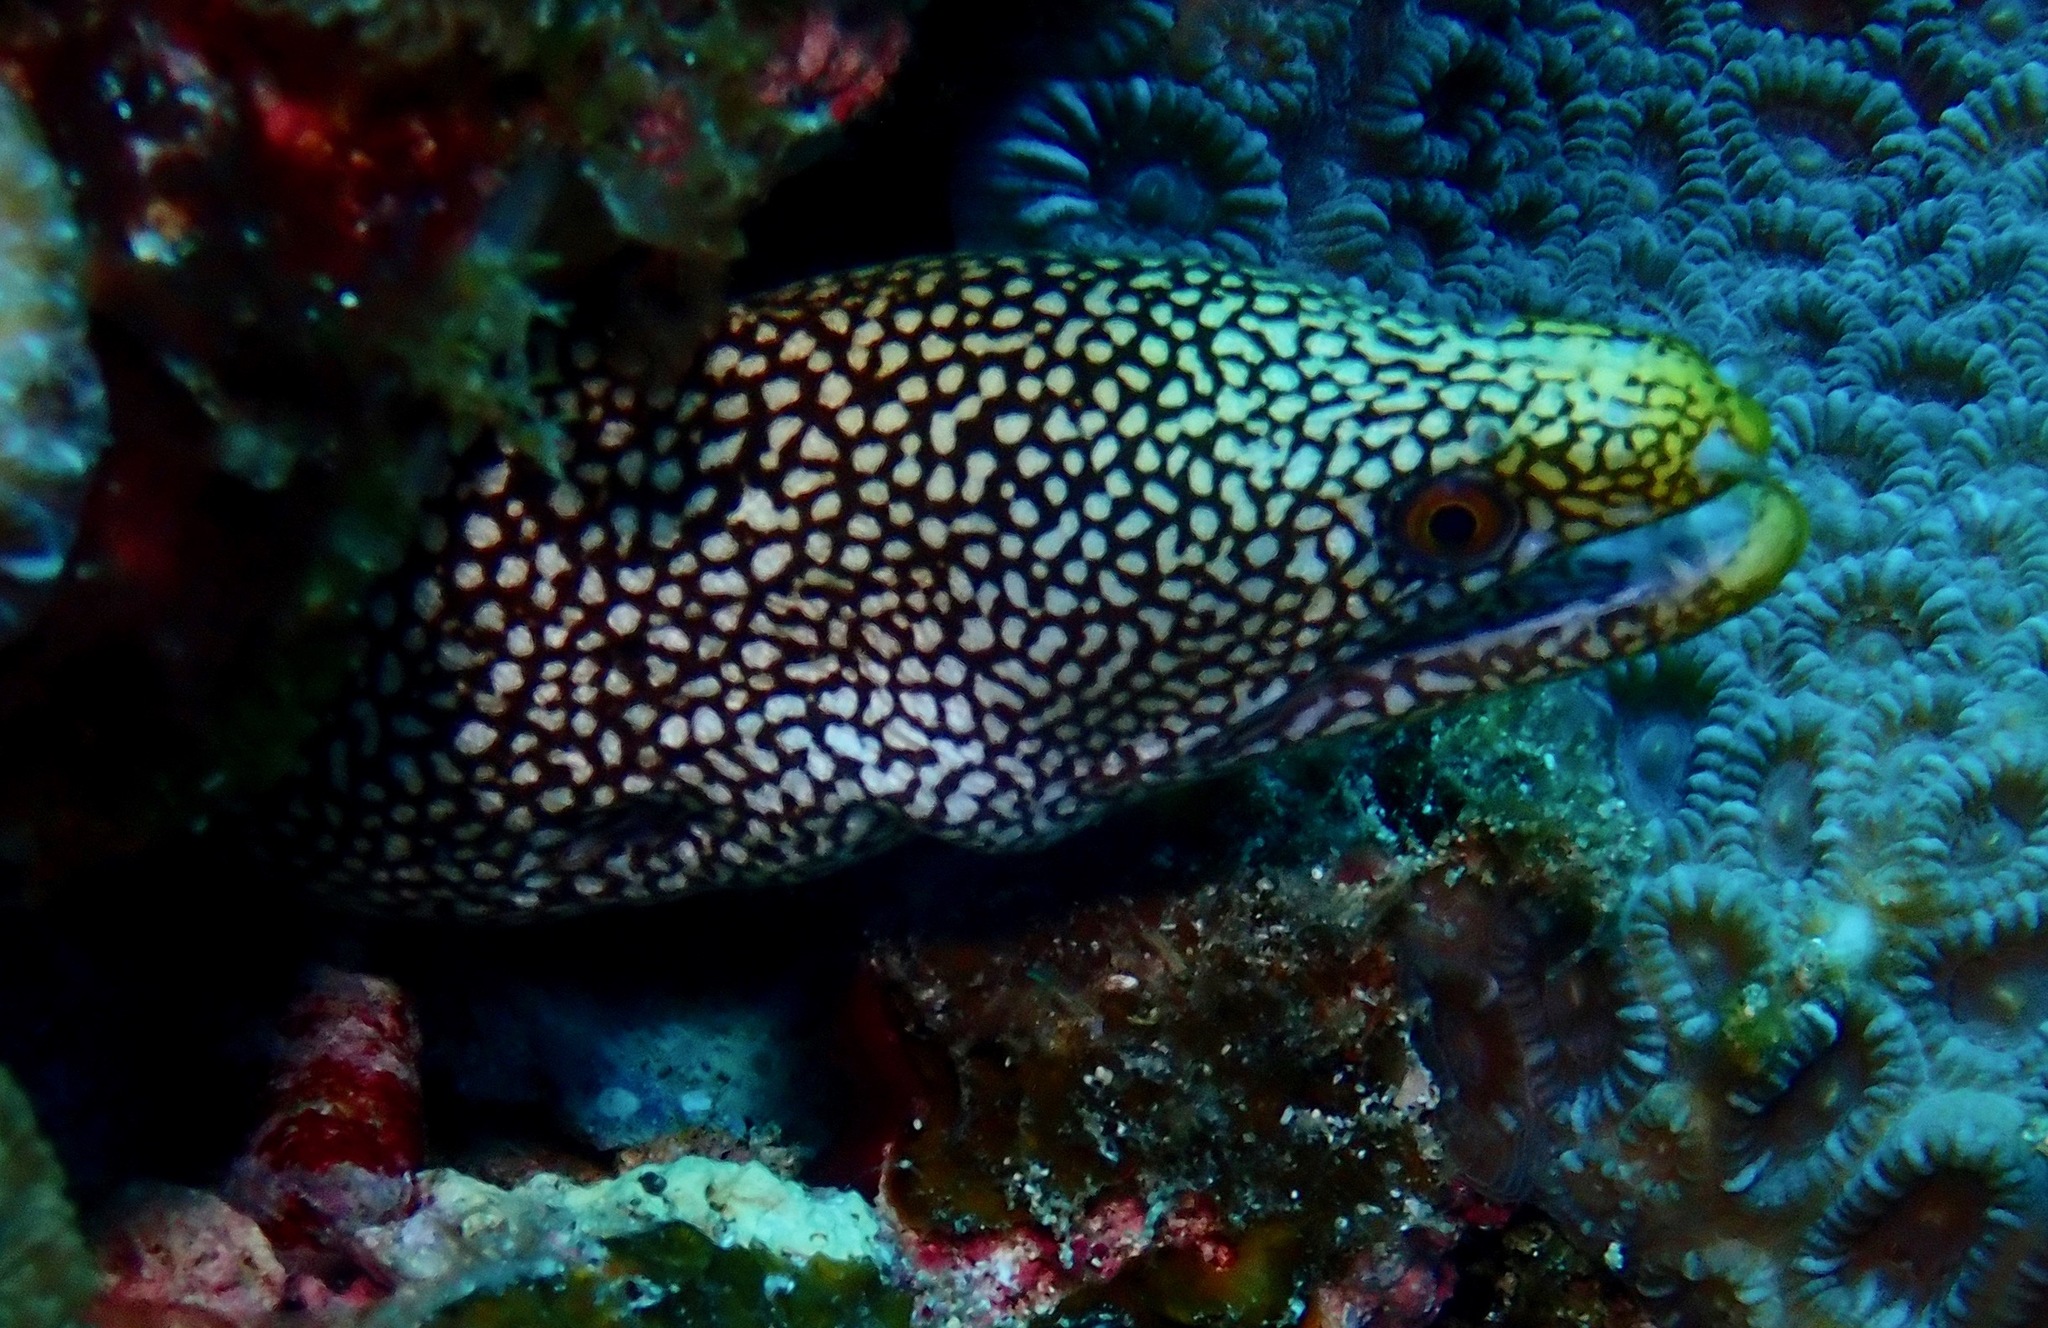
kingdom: Animalia
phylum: Chordata
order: Anguilliformes
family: Muraenidae
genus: Gymnothorax
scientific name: Gymnothorax eurostus
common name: Stout moray
